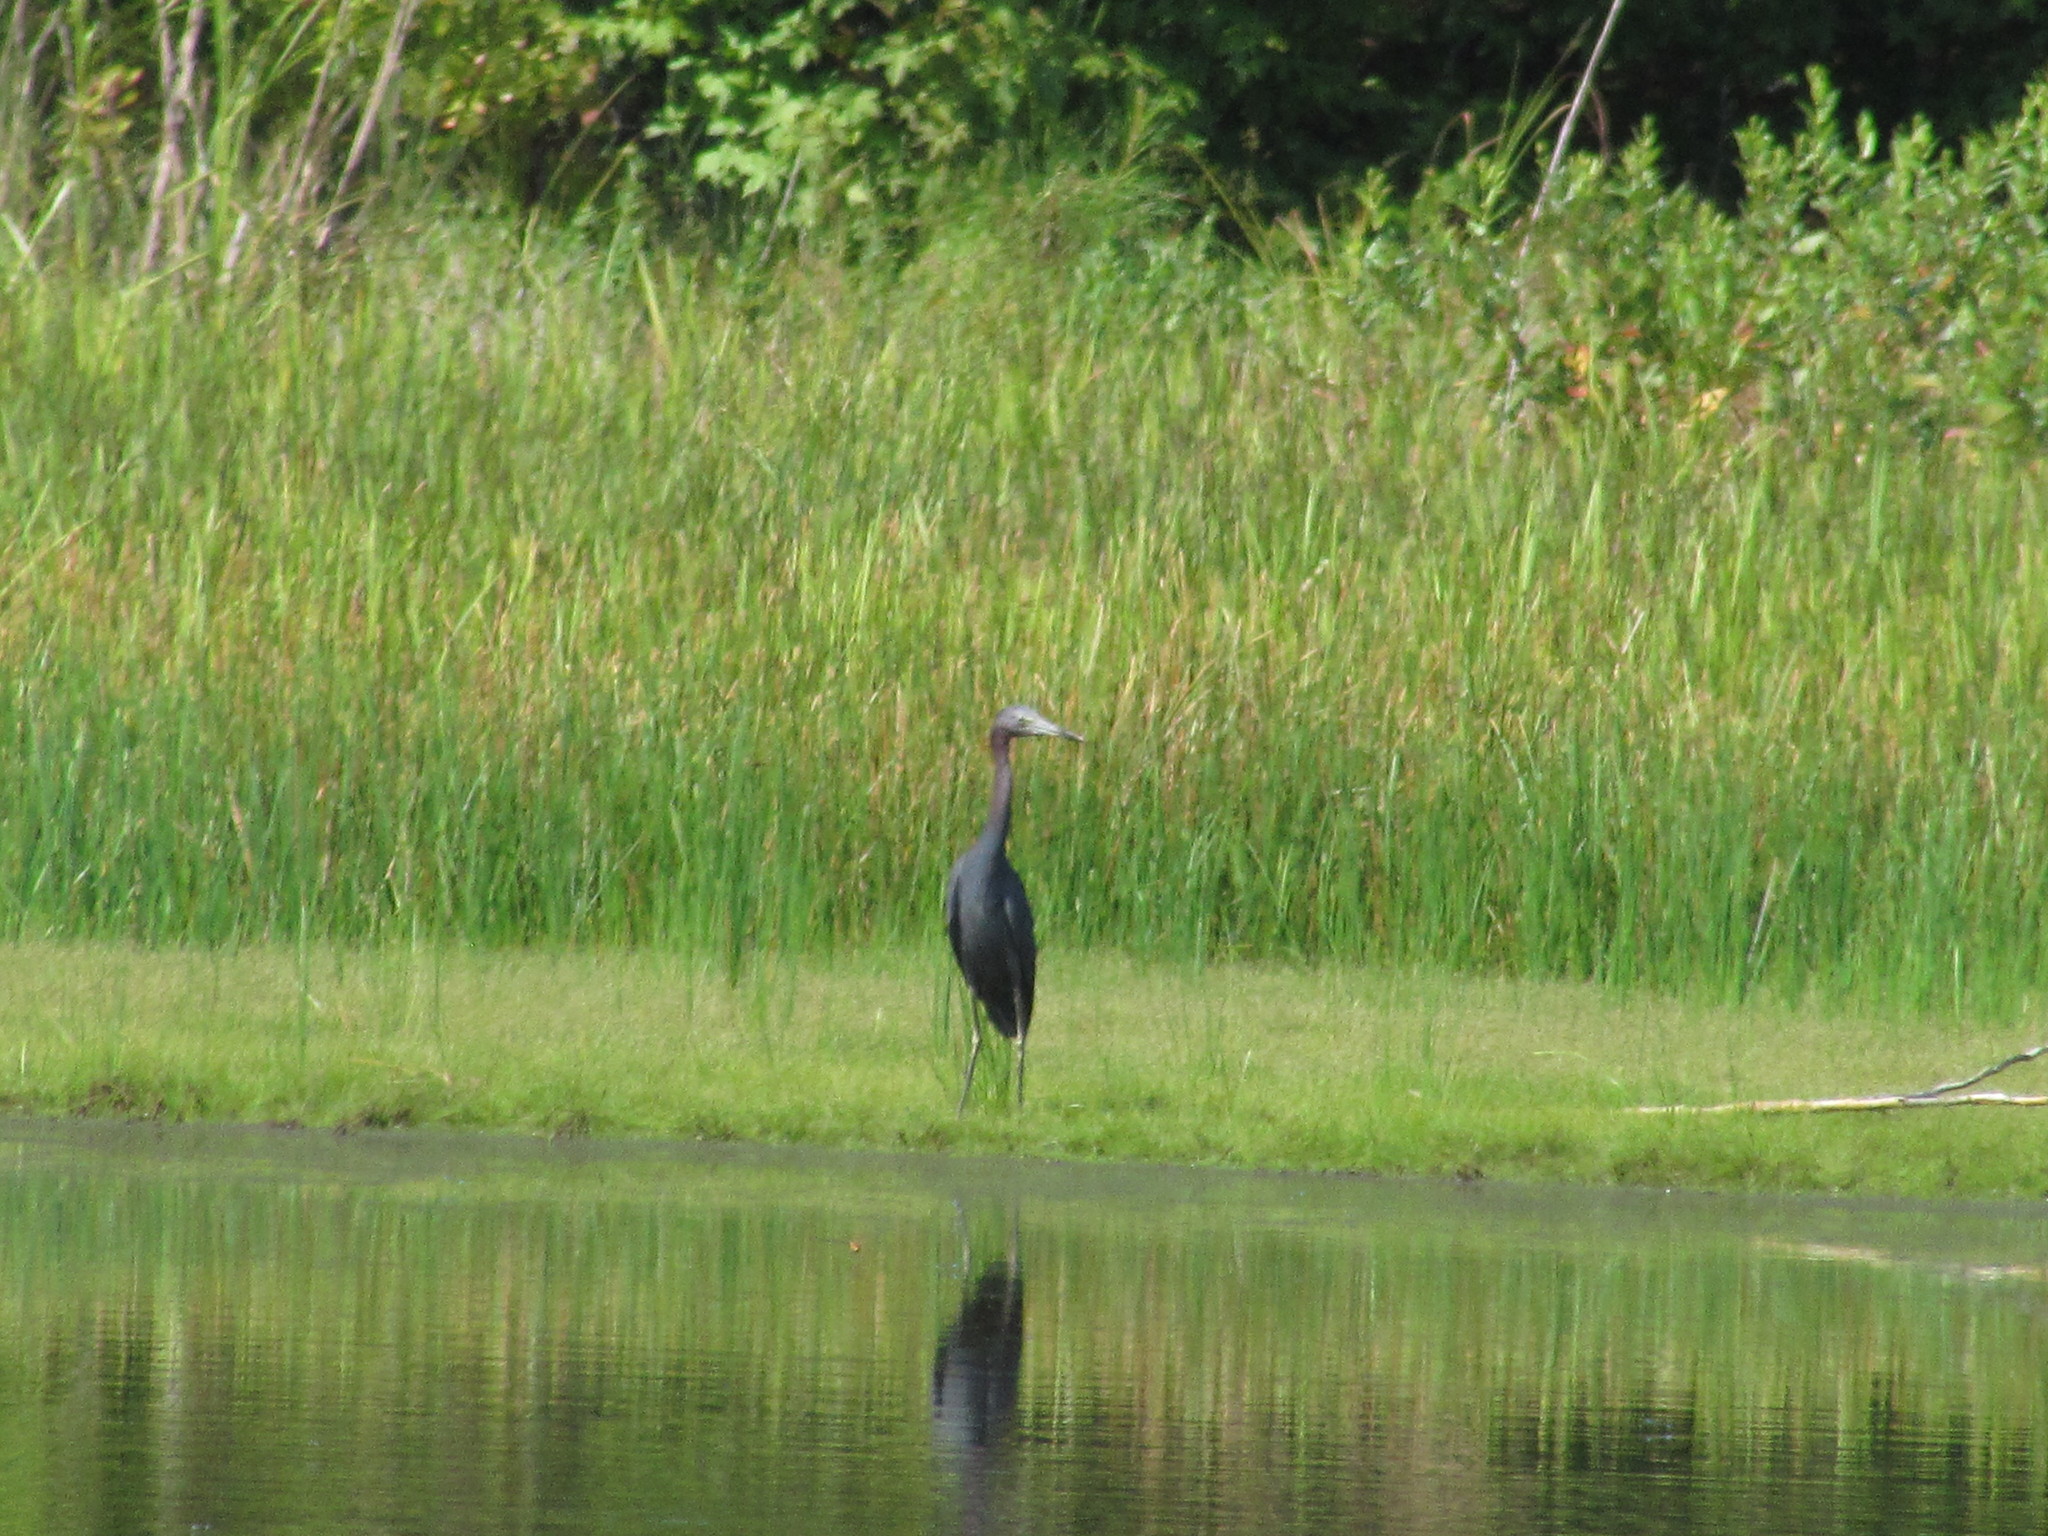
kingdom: Animalia
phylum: Chordata
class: Aves
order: Pelecaniformes
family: Ardeidae
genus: Egretta
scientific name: Egretta caerulea
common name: Little blue heron
